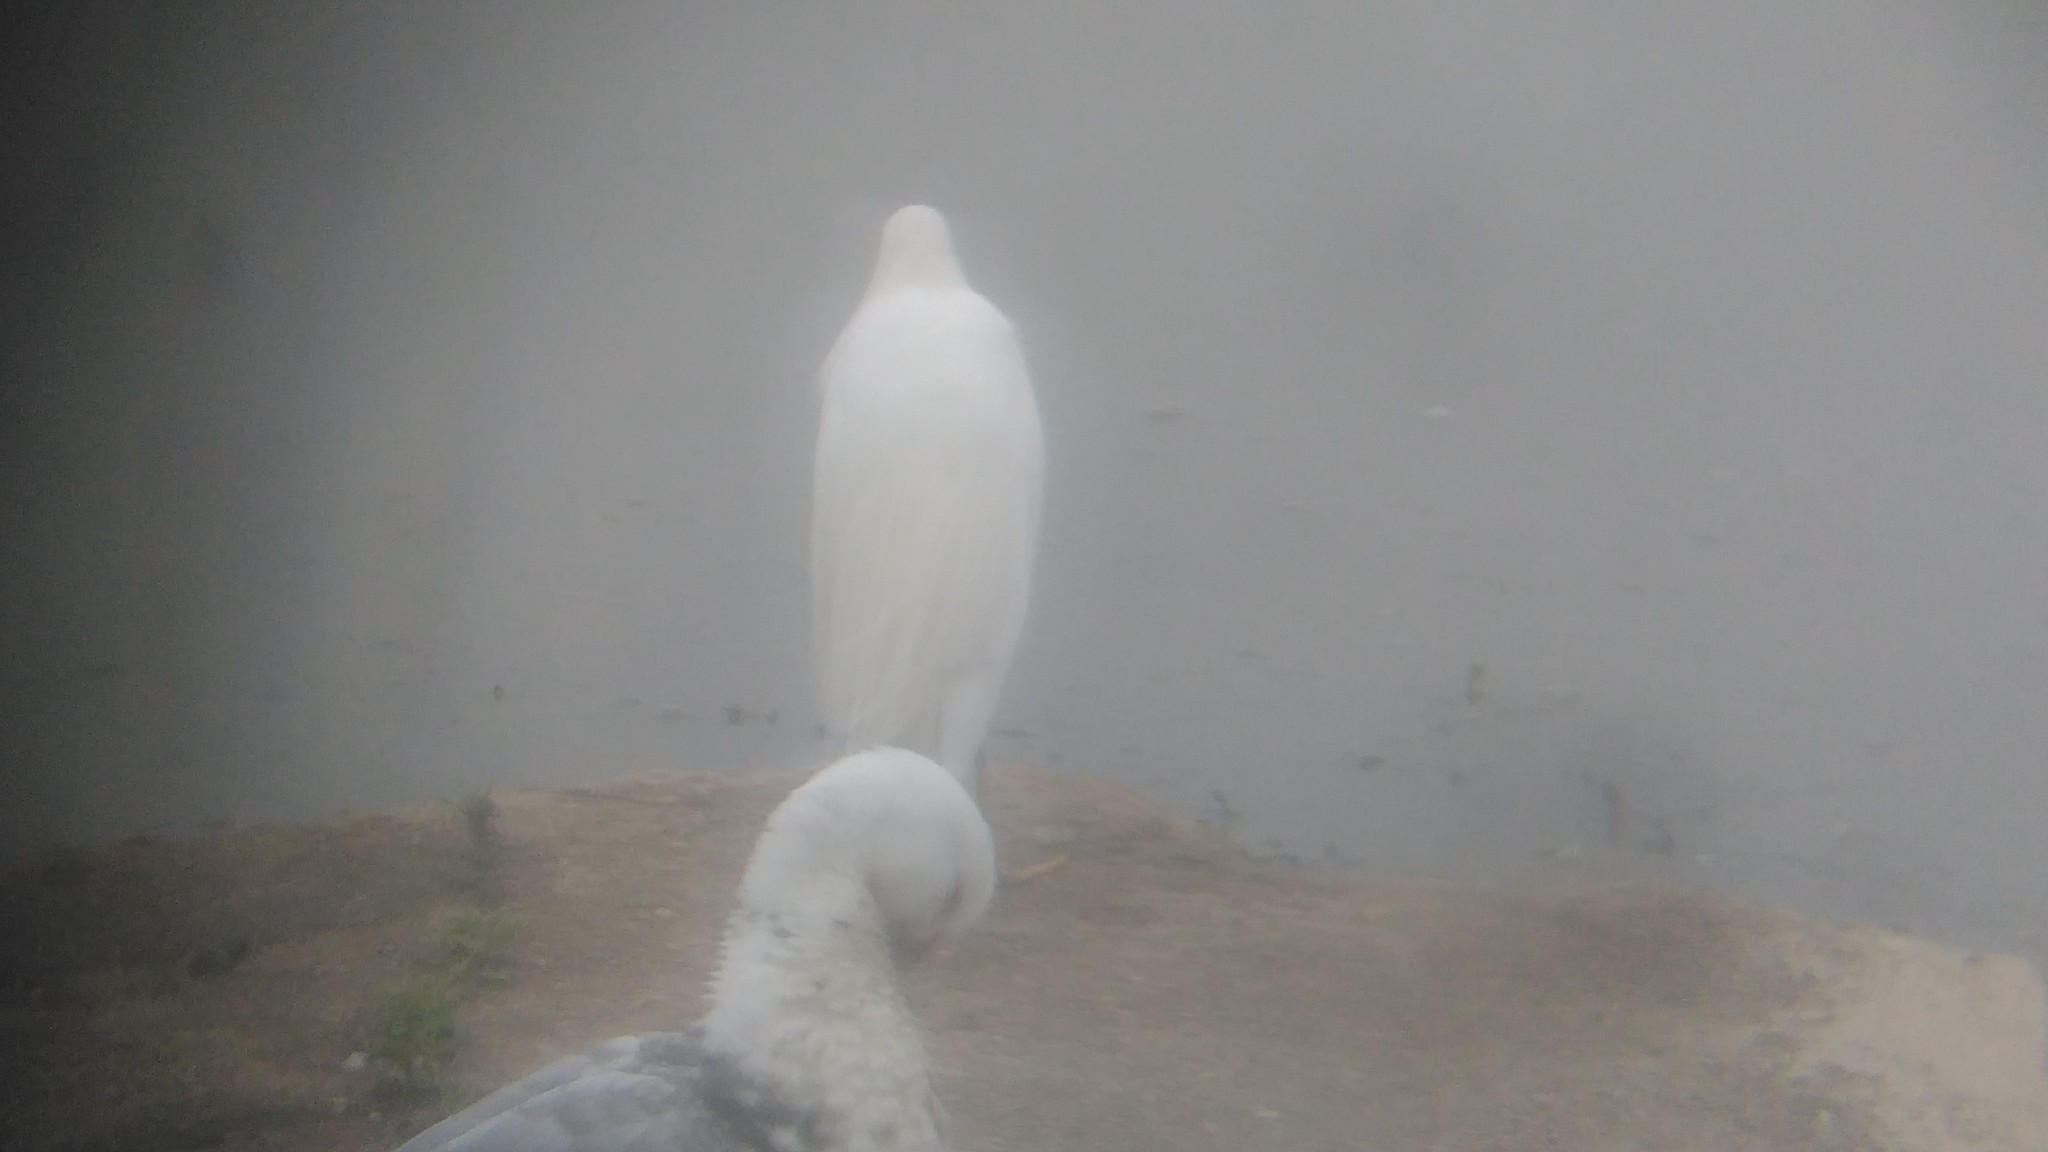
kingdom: Animalia
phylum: Chordata
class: Aves
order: Pelecaniformes
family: Ardeidae
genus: Egretta
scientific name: Egretta thula
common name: Snowy egret
